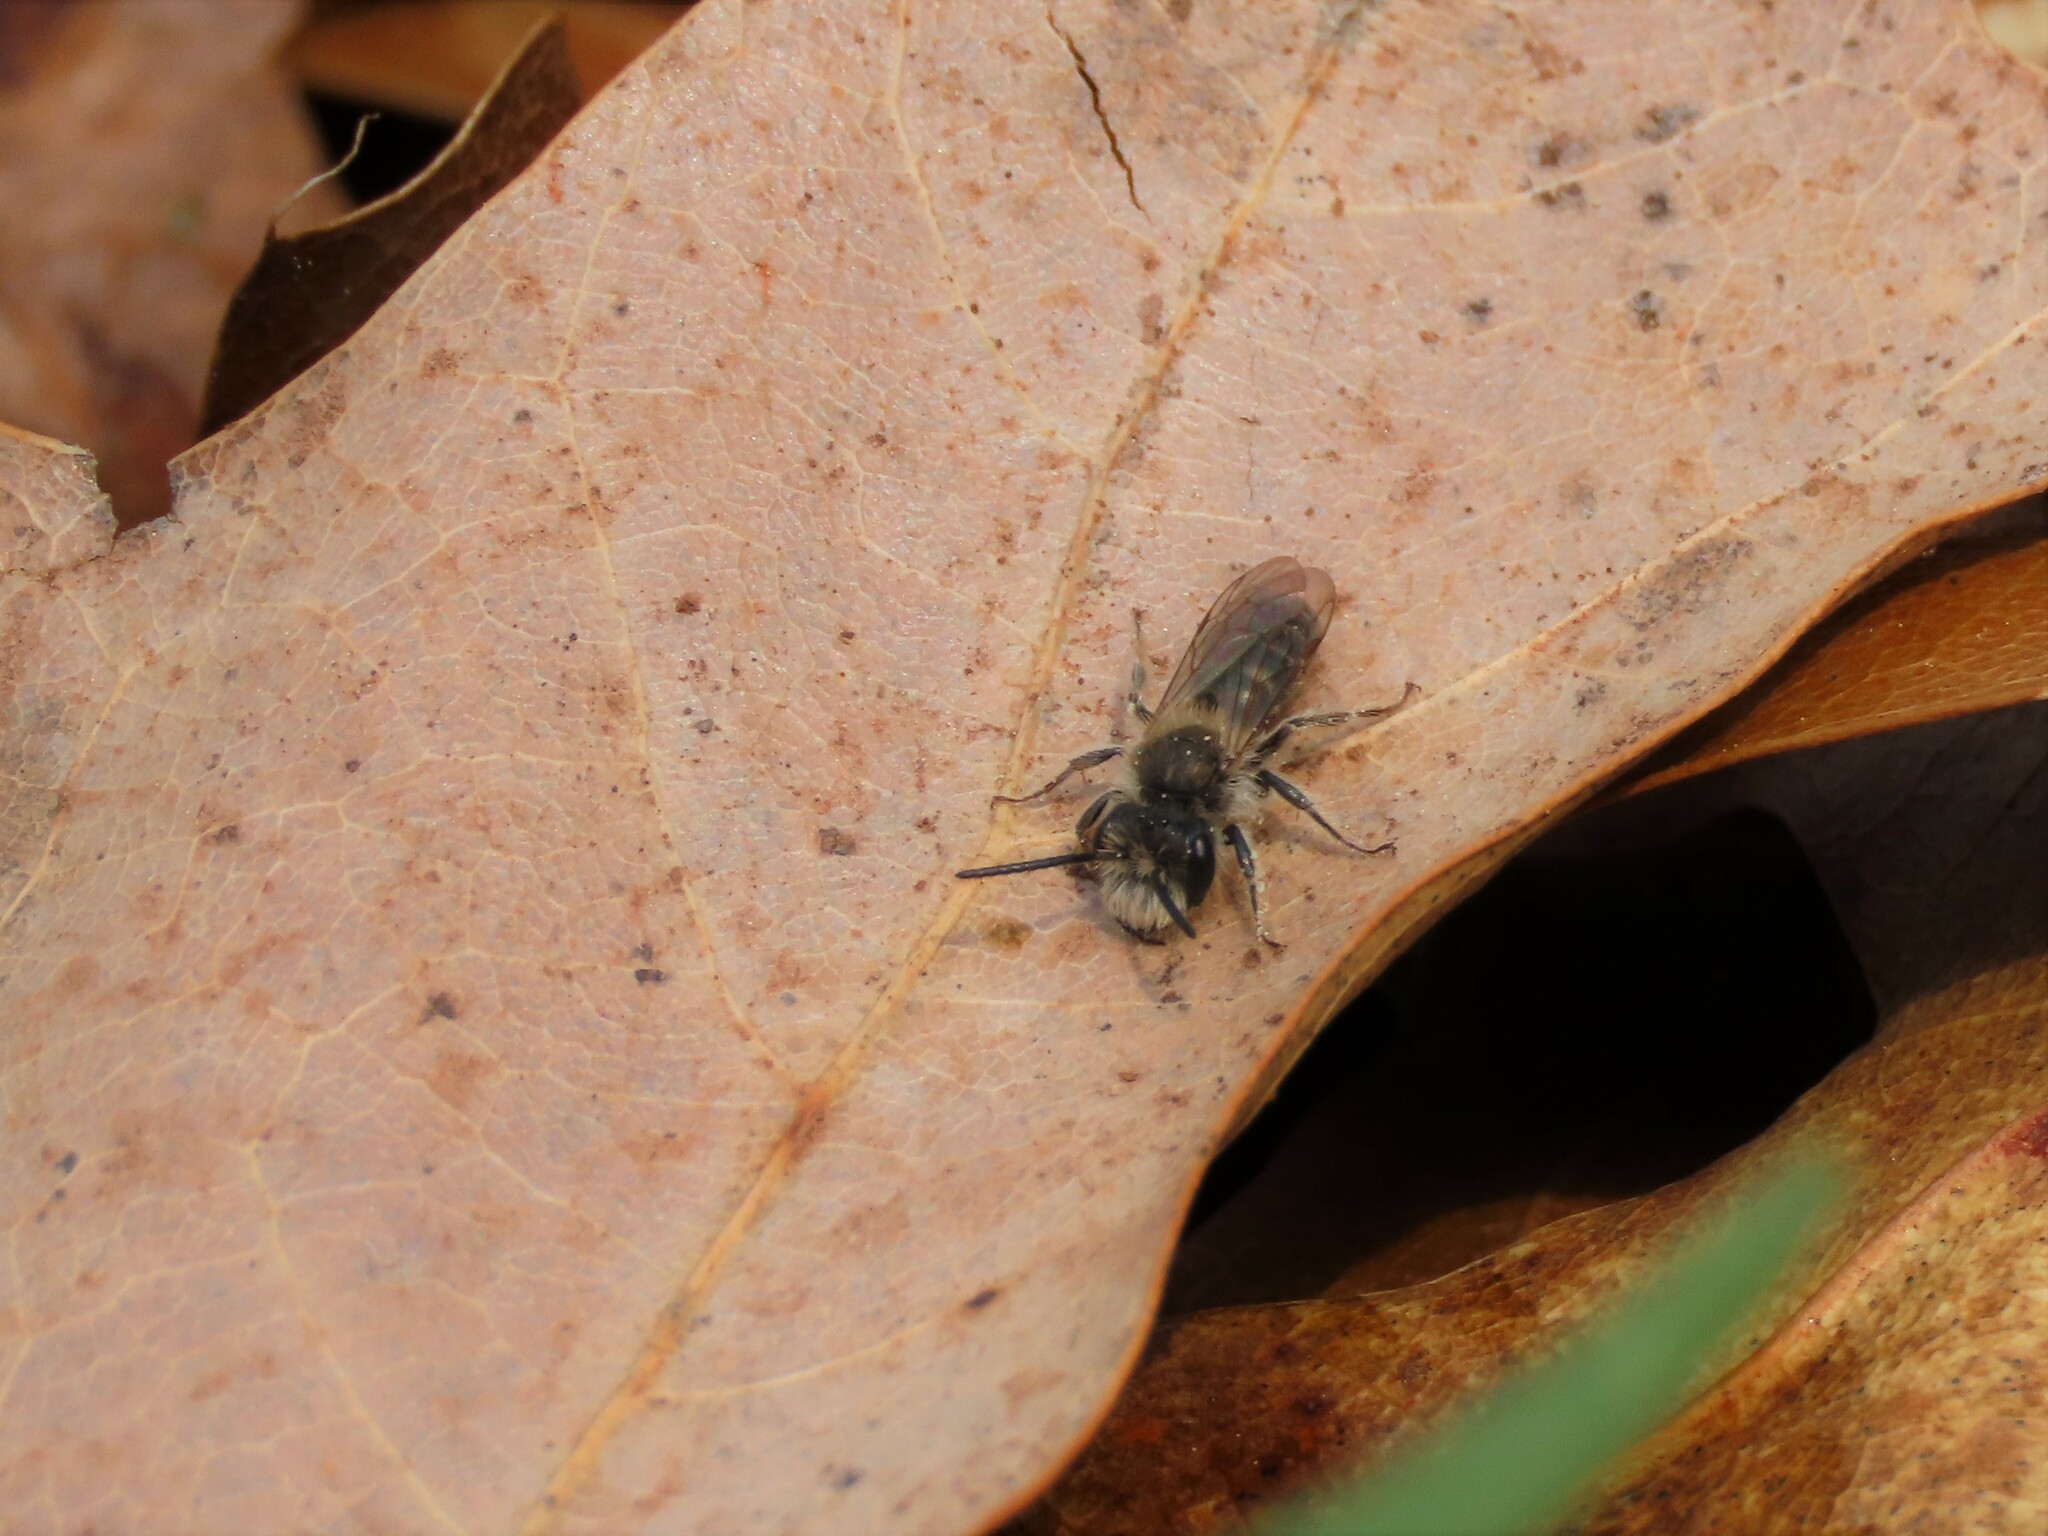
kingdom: Animalia
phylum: Arthropoda
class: Insecta
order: Hymenoptera
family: Andrenidae
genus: Andrena
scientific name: Andrena erigeniae
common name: Spring beauty miner
